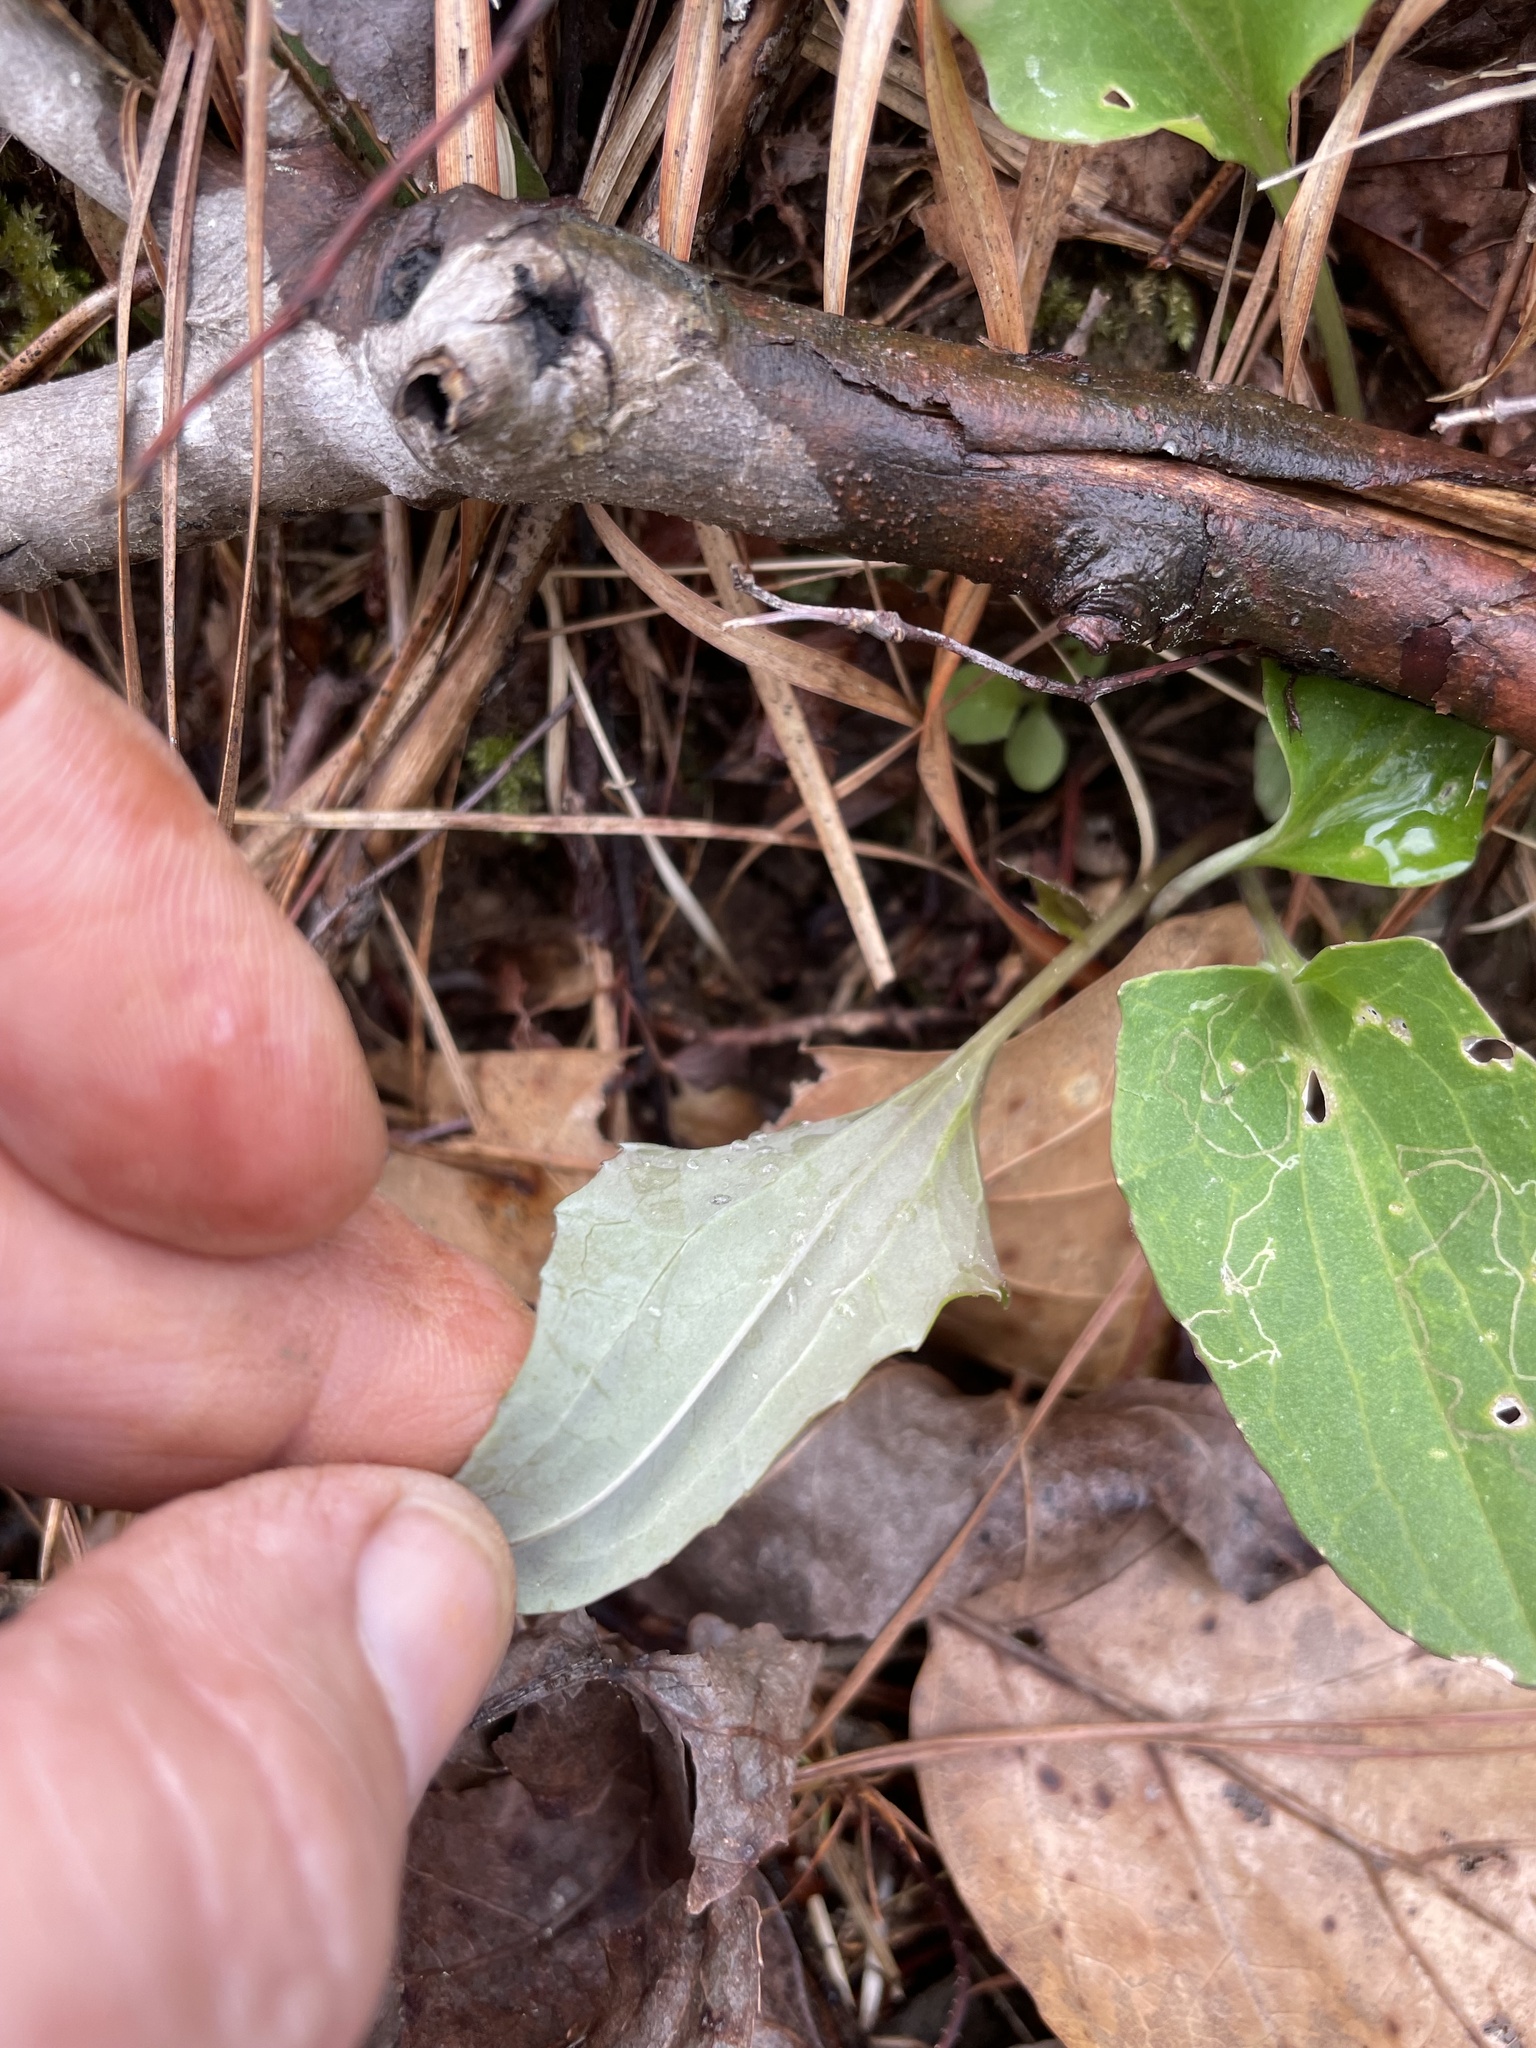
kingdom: Plantae
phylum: Tracheophyta
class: Magnoliopsida
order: Asterales
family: Asteraceae
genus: Arnoglossum
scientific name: Arnoglossum atriplicifolium
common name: Pale indian-plantain
